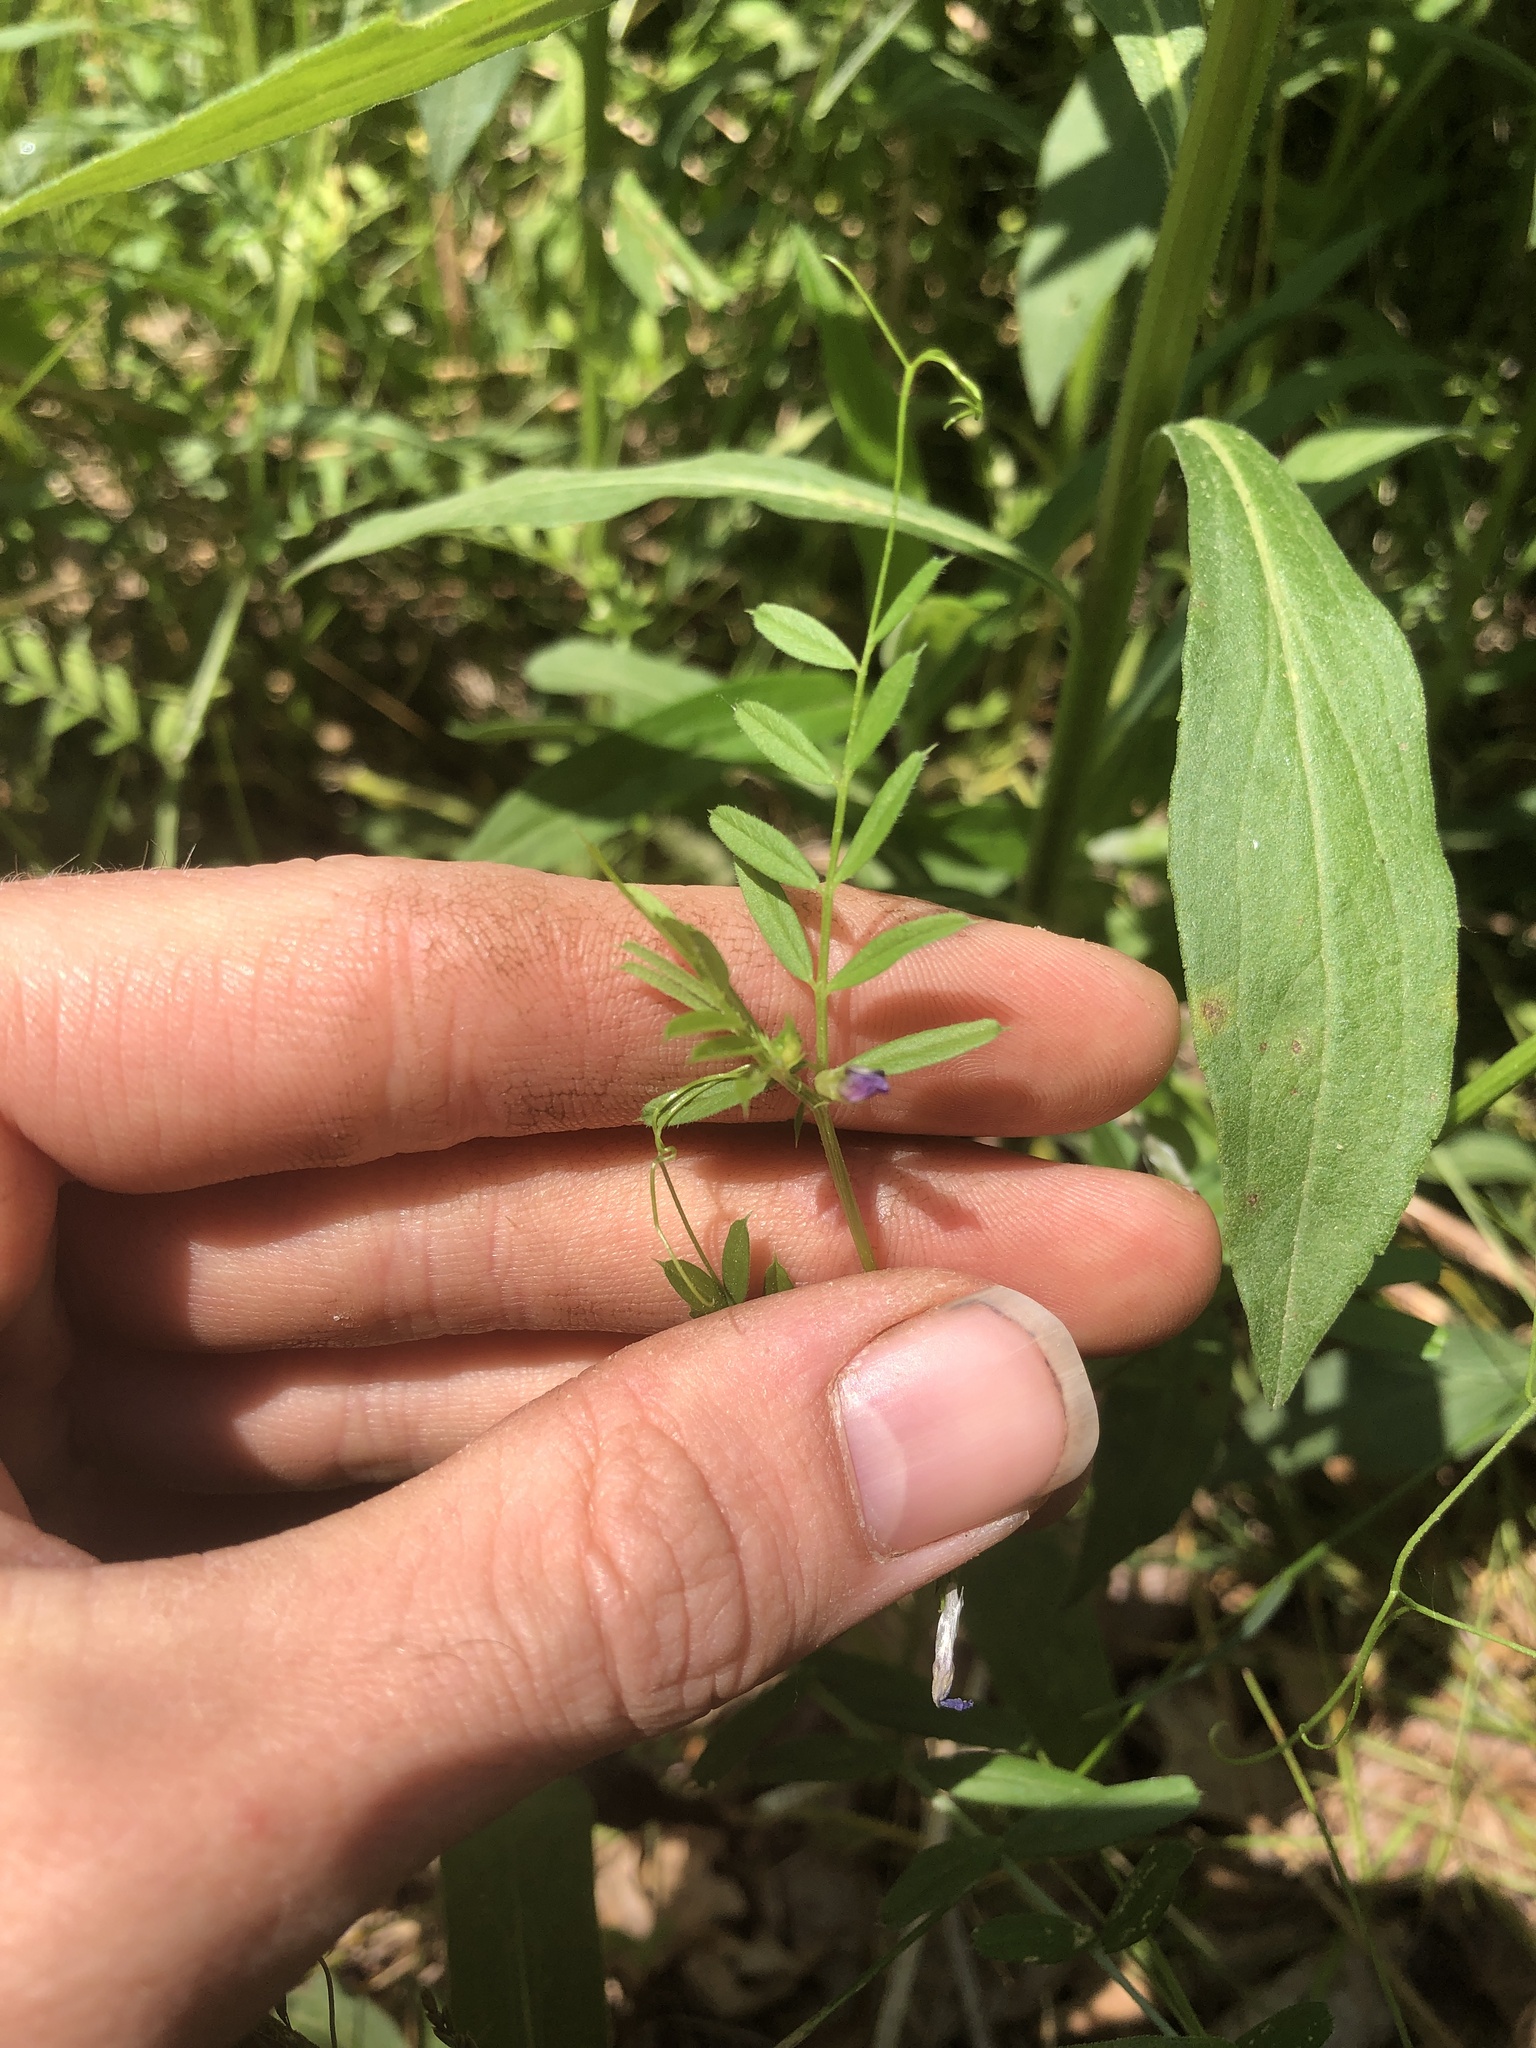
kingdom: Plantae
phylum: Tracheophyta
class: Magnoliopsida
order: Fabales
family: Fabaceae
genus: Vicia
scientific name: Vicia sativa
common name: Garden vetch
